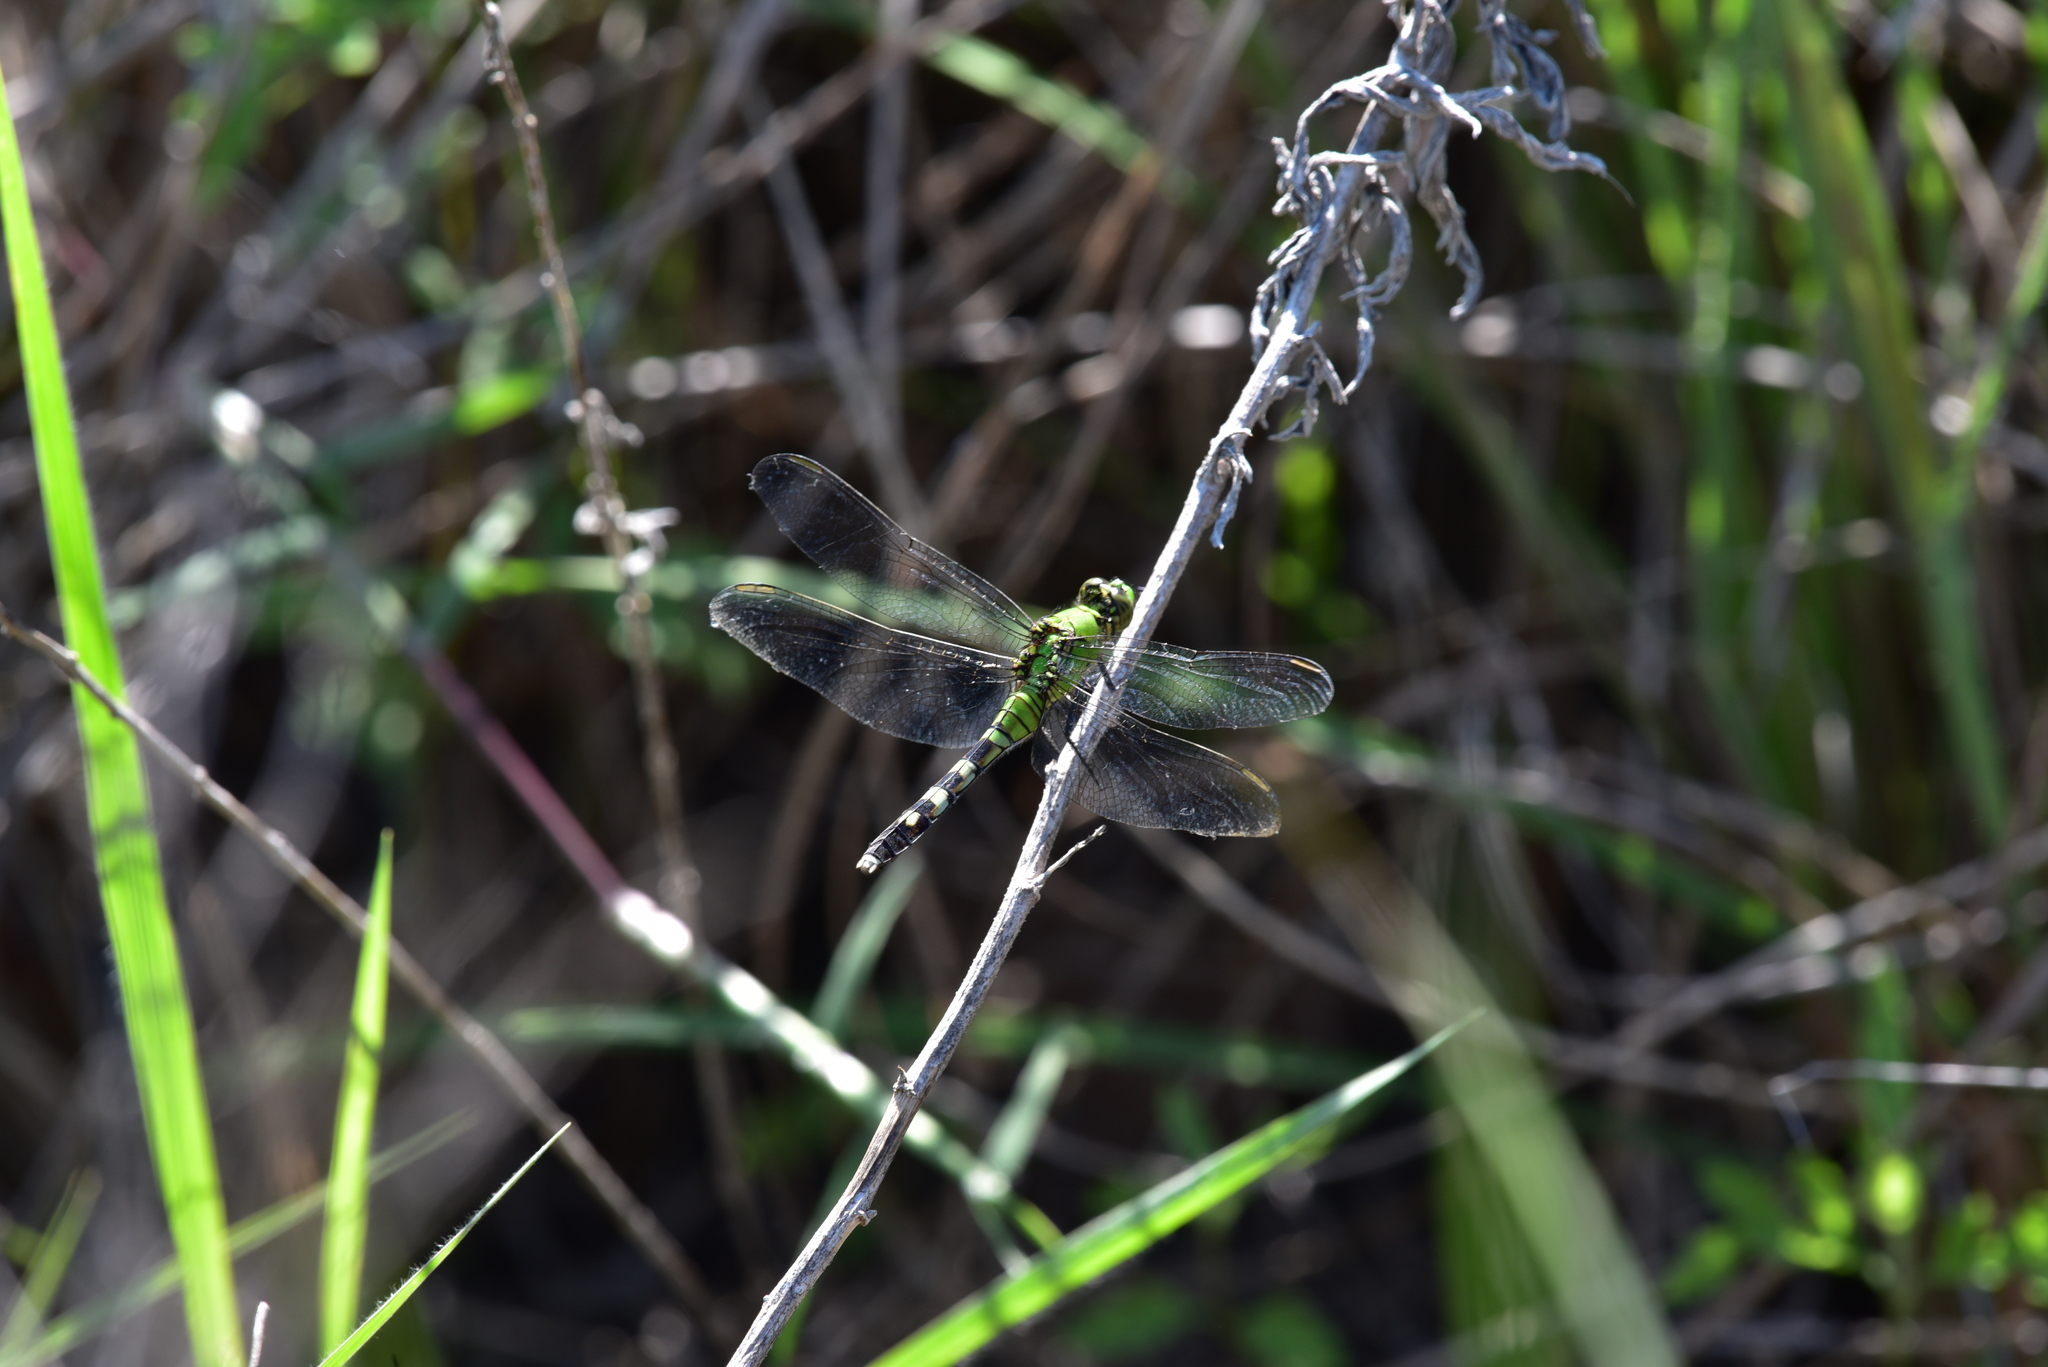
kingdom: Animalia
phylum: Arthropoda
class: Insecta
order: Odonata
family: Libellulidae
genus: Erythemis
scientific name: Erythemis simplicicollis
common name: Eastern pondhawk
